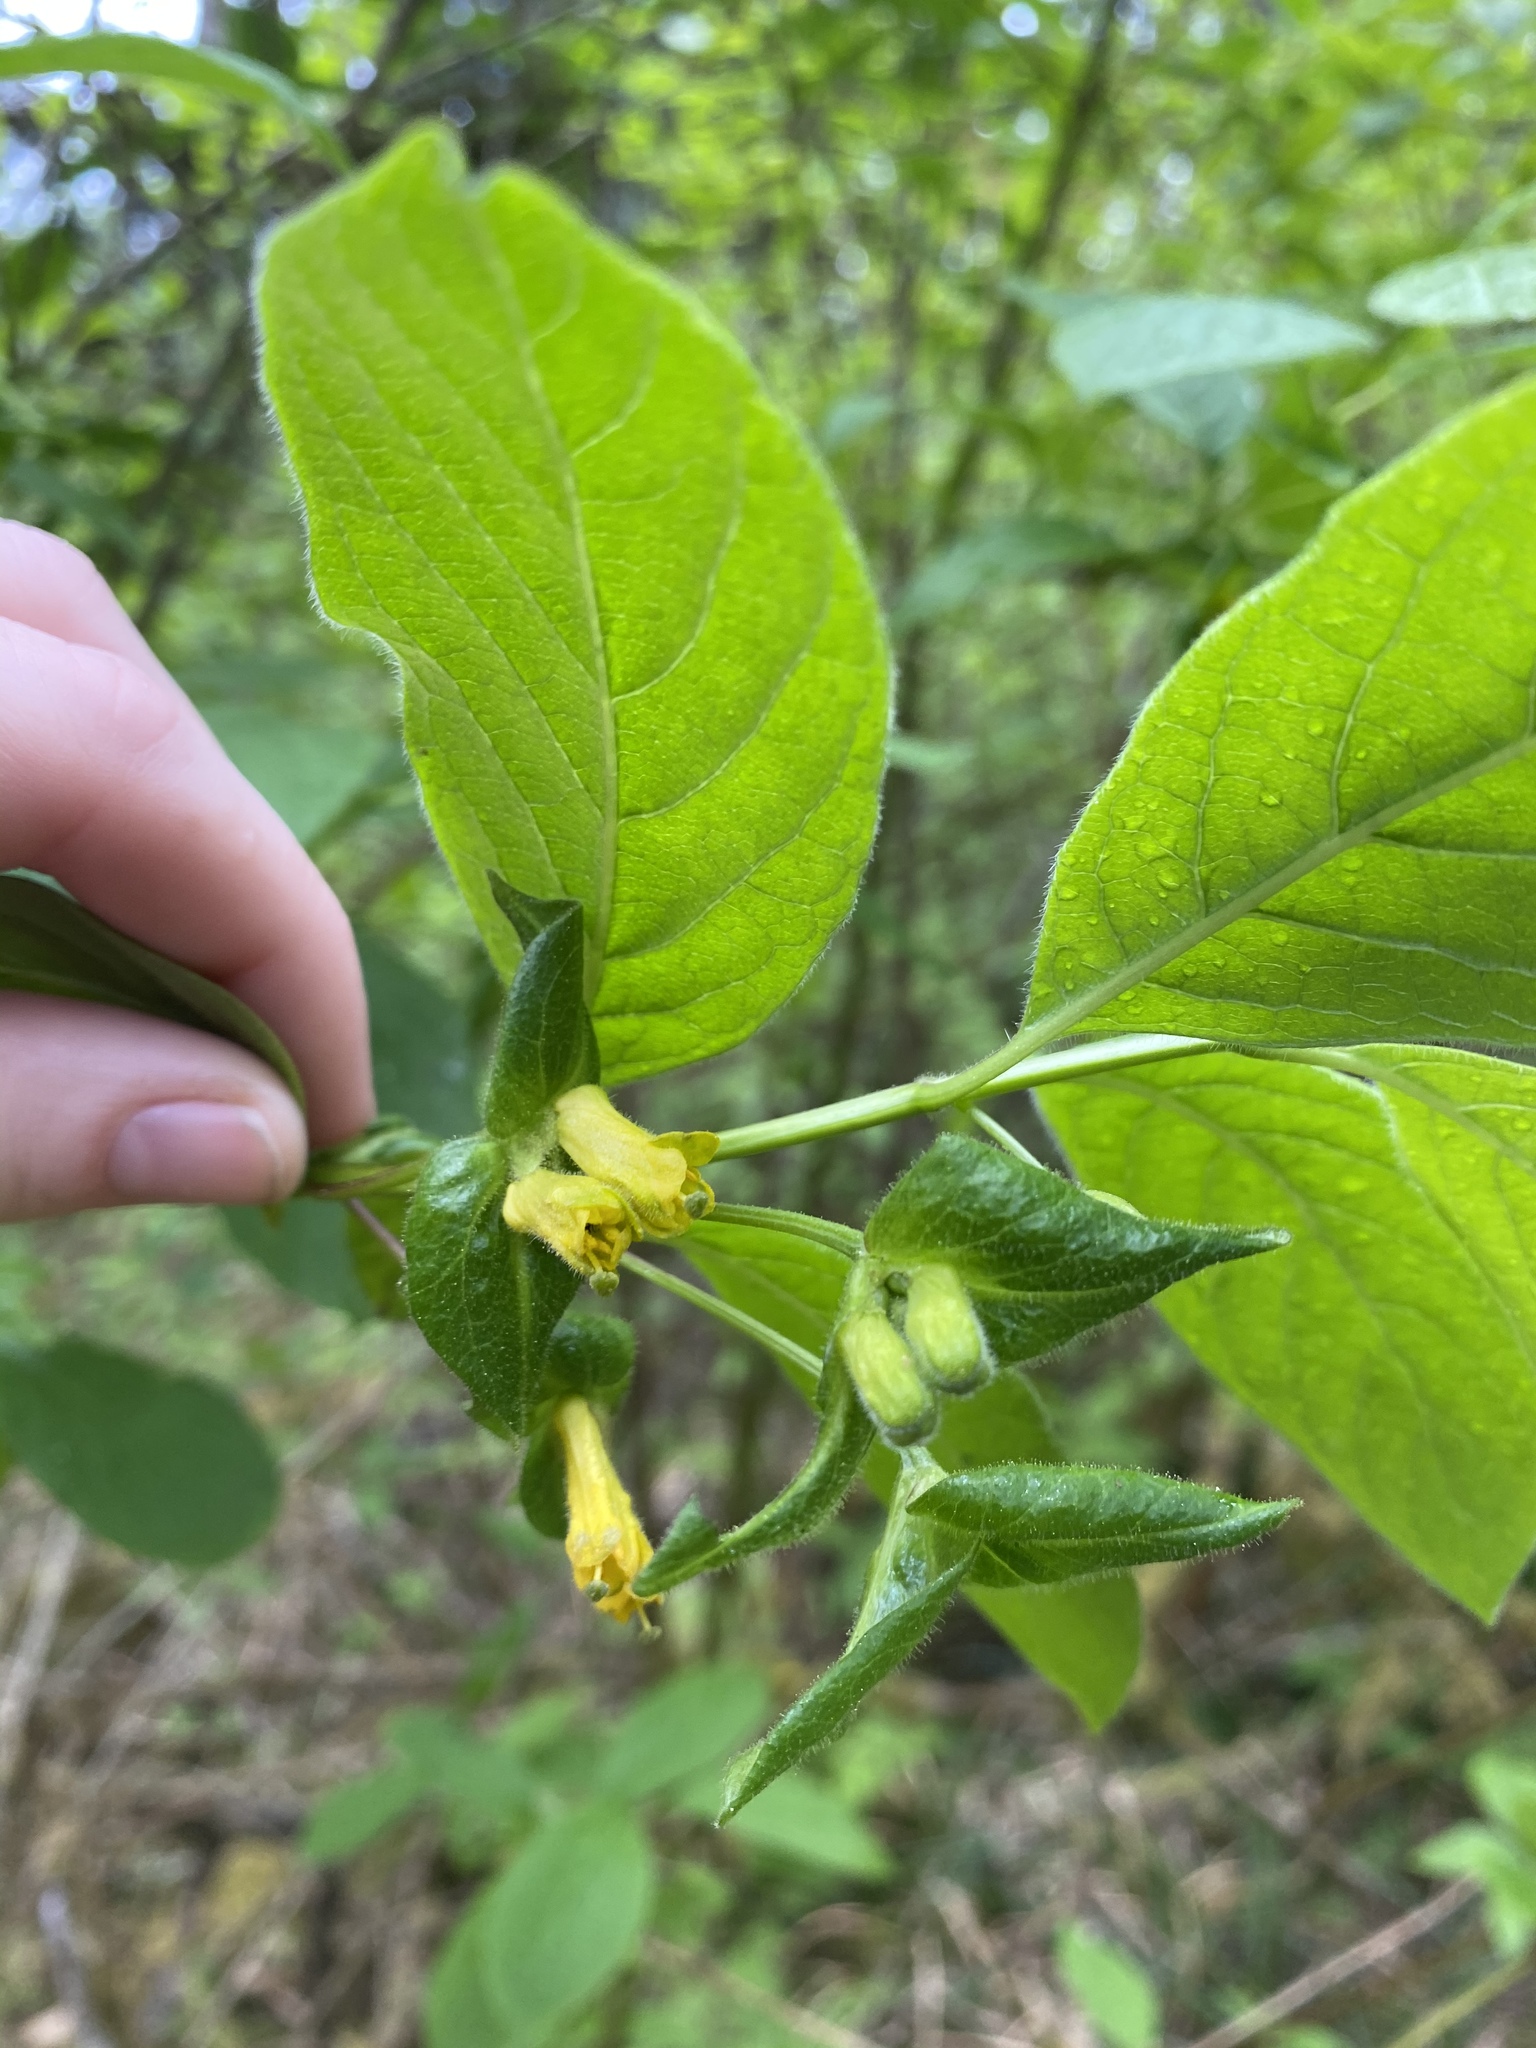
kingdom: Plantae
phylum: Tracheophyta
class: Magnoliopsida
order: Dipsacales
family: Caprifoliaceae
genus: Lonicera
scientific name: Lonicera involucrata
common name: Californian honeysuckle
